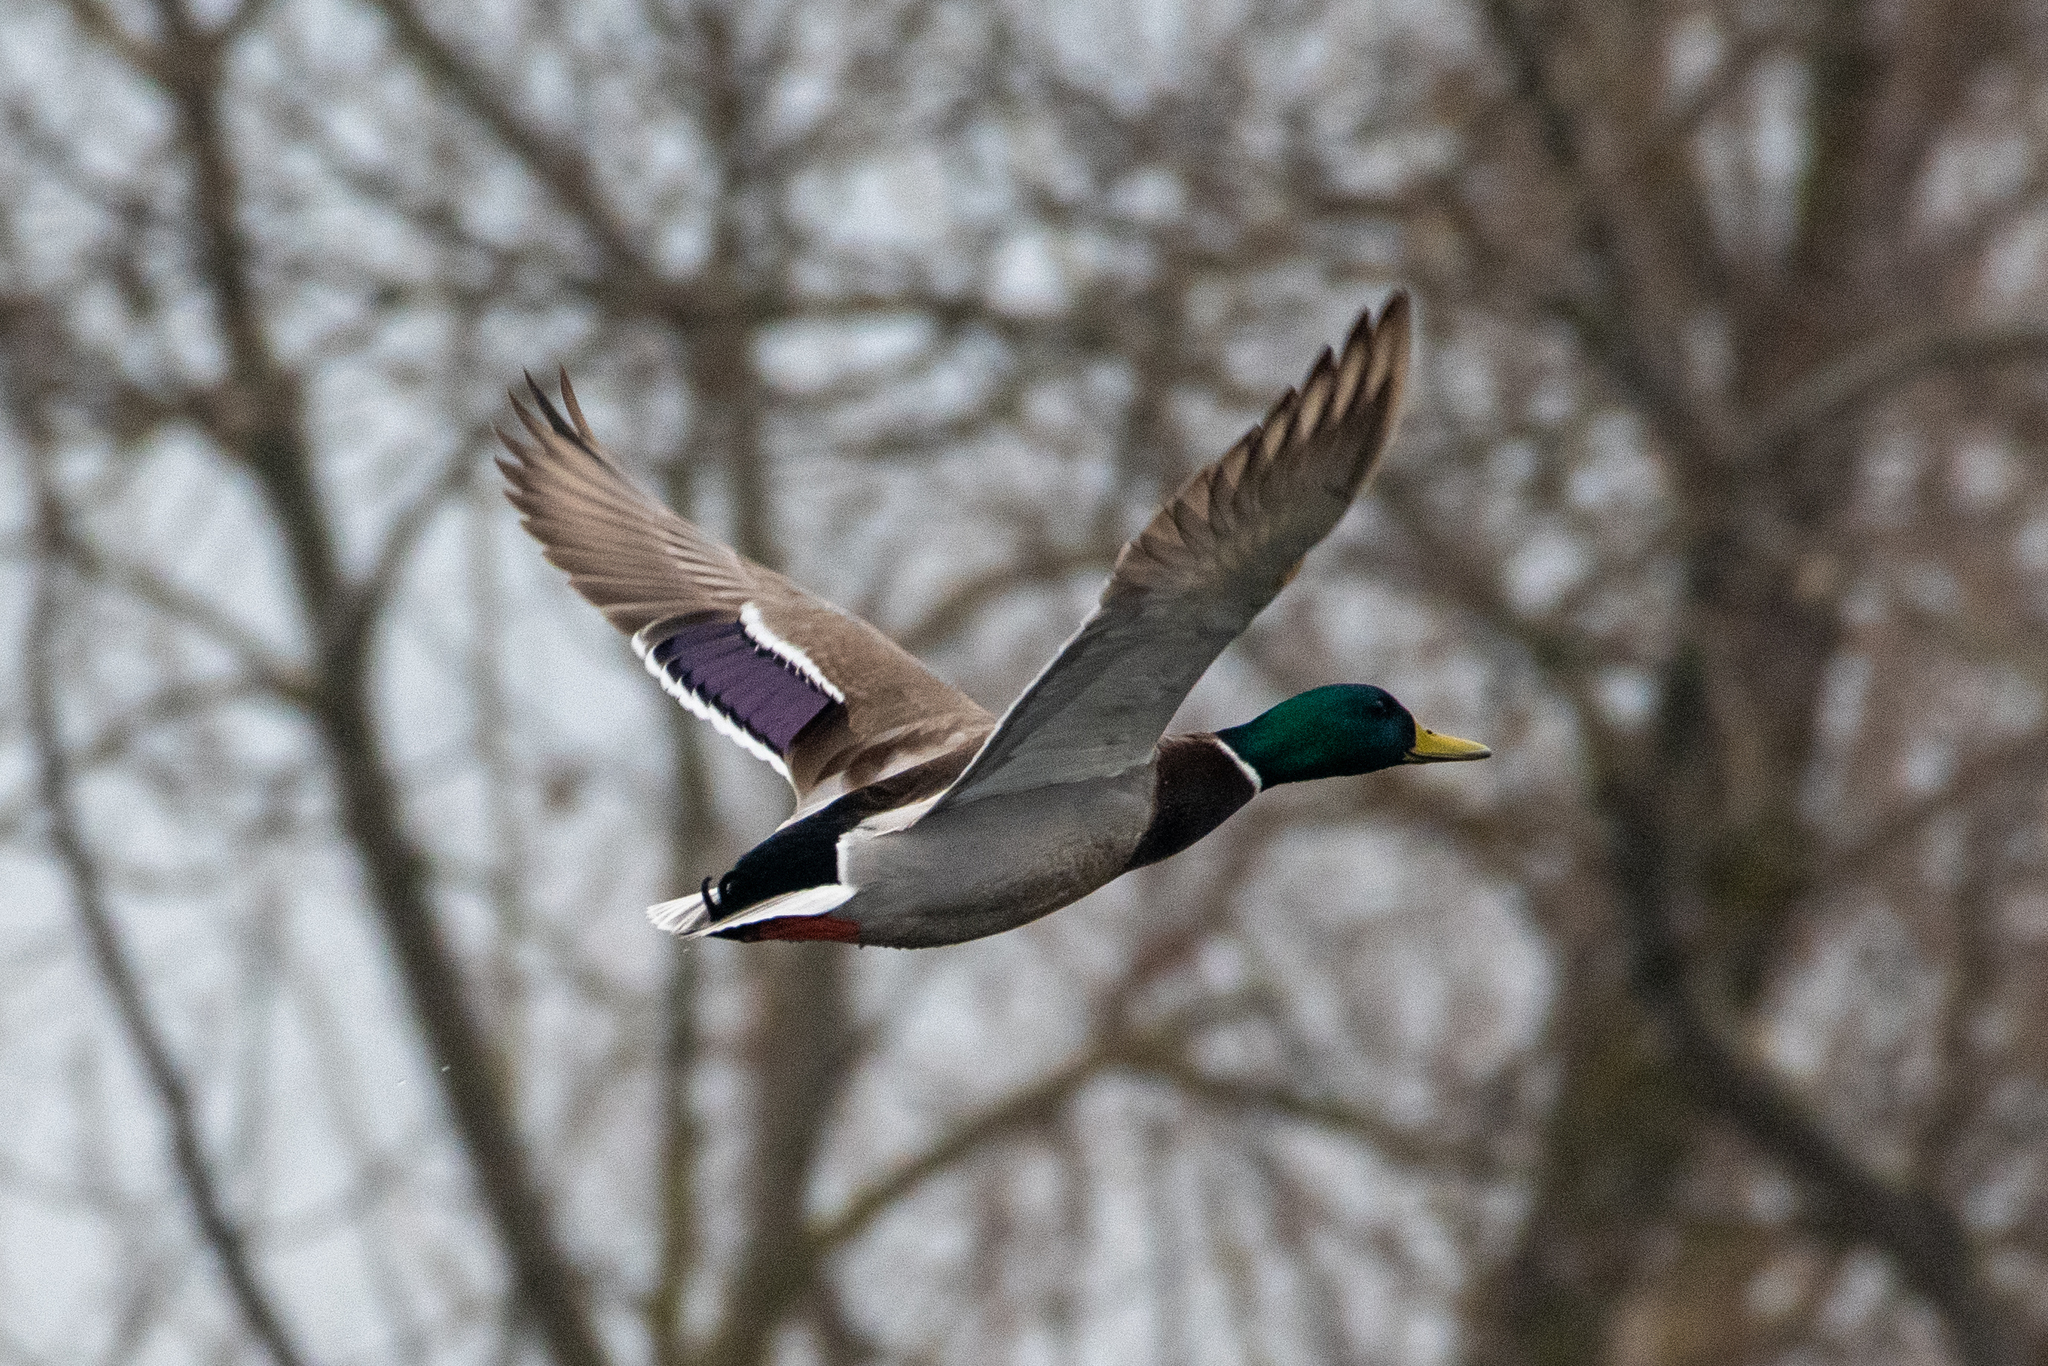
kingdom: Animalia
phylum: Chordata
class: Aves
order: Anseriformes
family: Anatidae
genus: Anas
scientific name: Anas platyrhynchos
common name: Mallard
